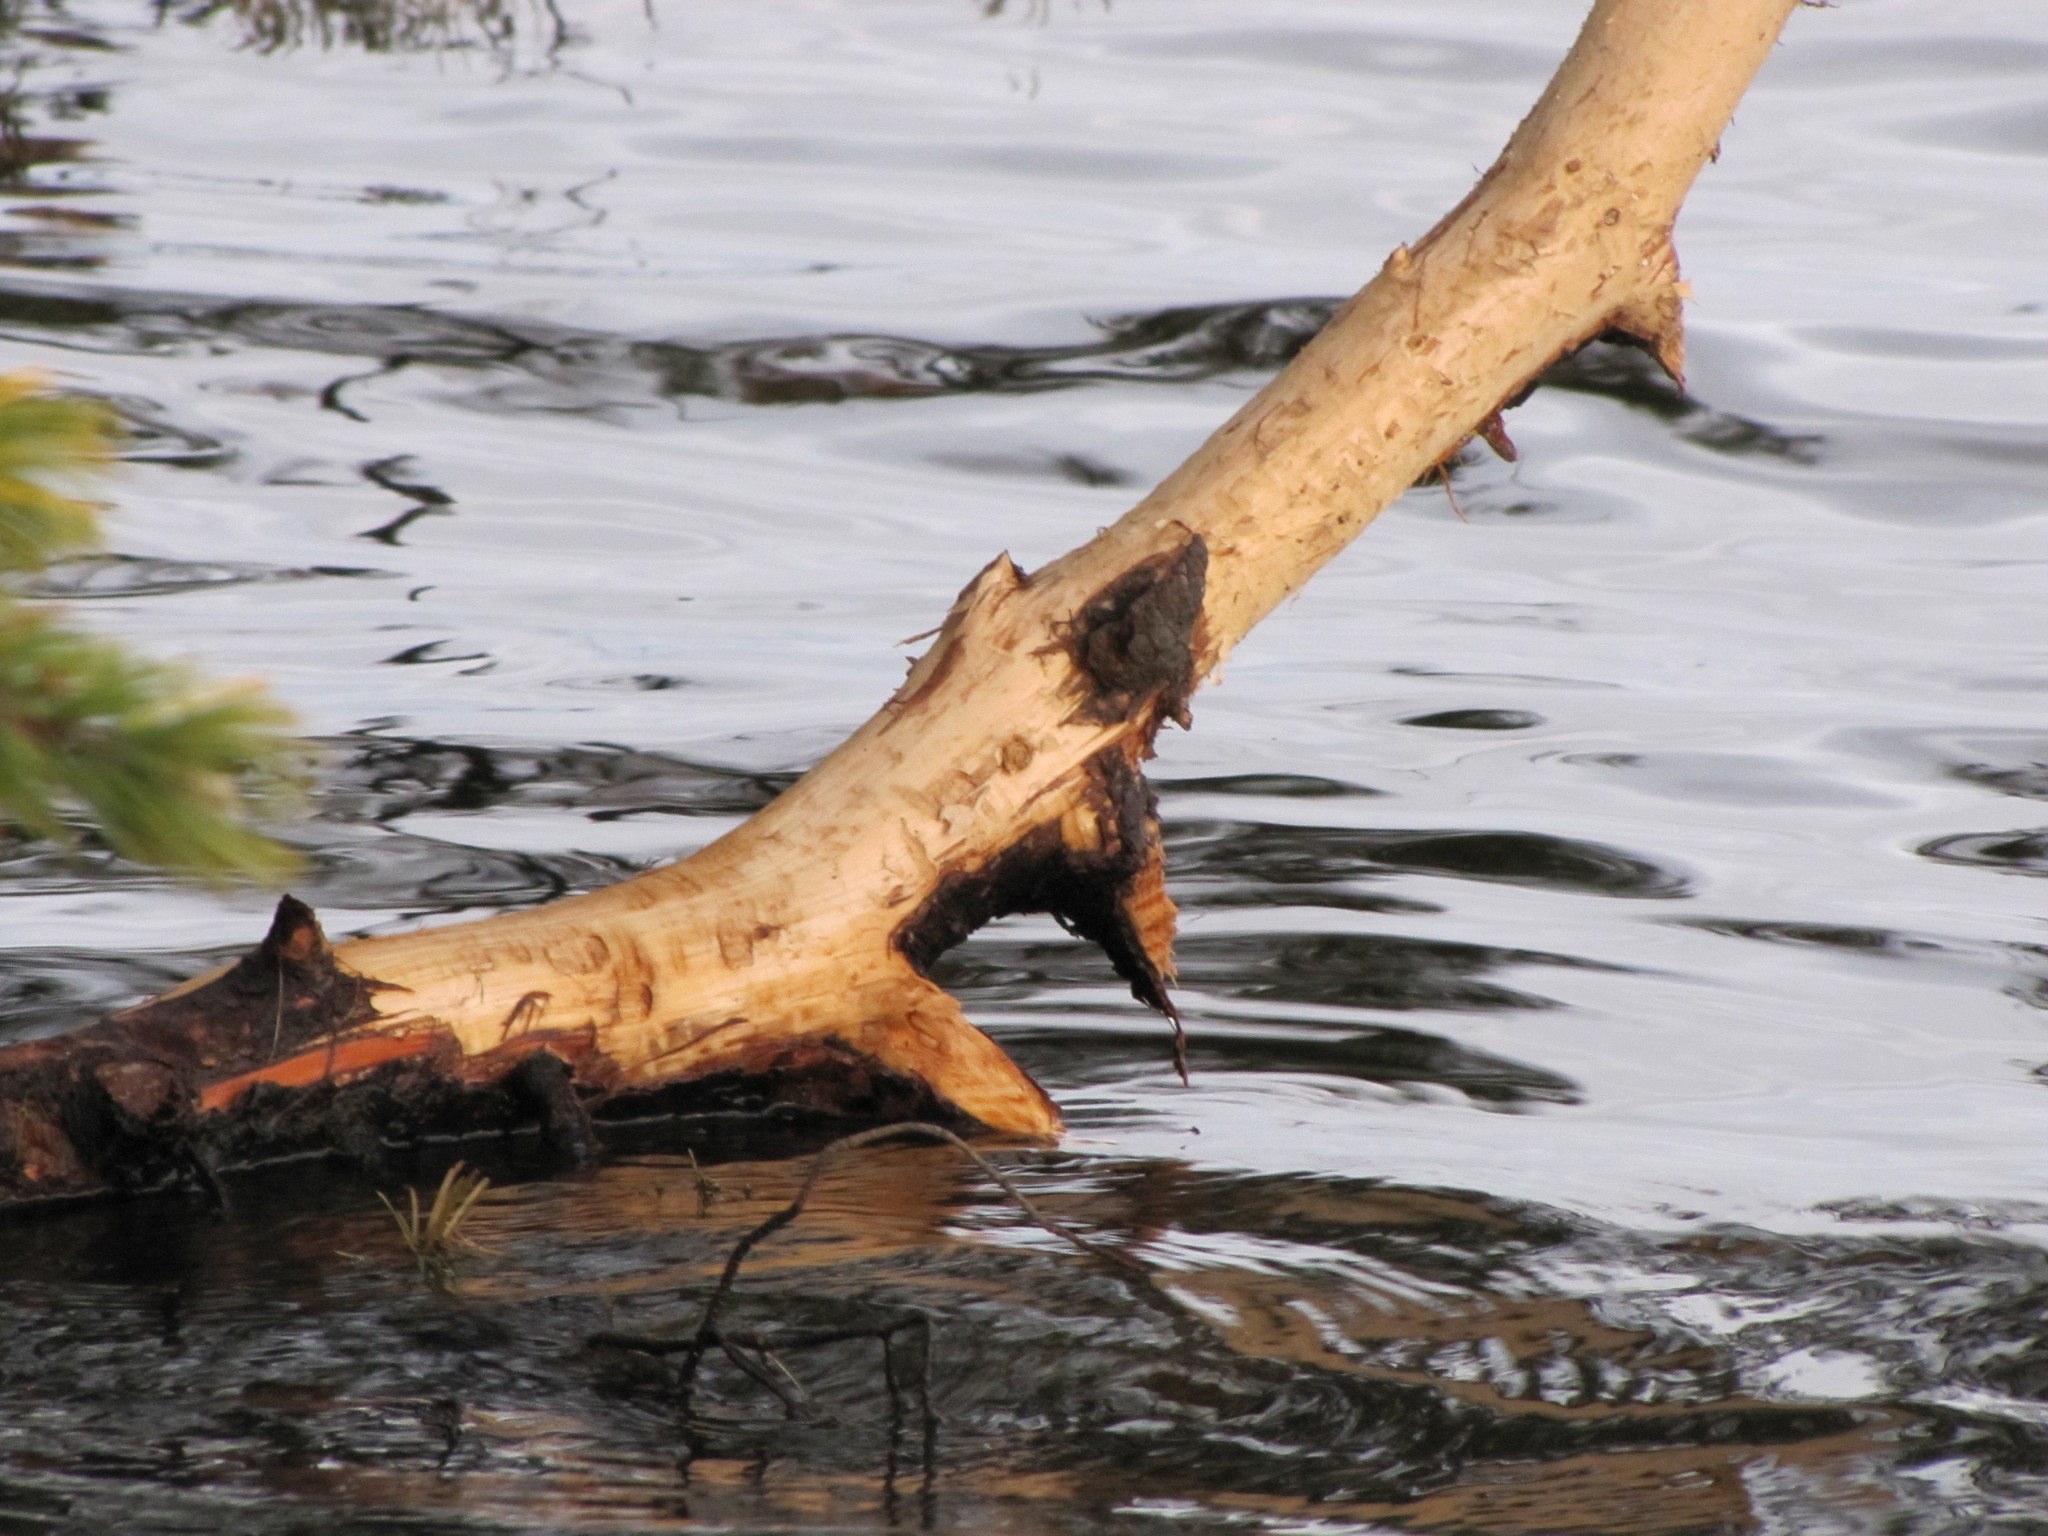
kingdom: Animalia
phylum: Chordata
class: Mammalia
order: Rodentia
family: Castoridae
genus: Castor
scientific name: Castor canadensis
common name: American beaver
